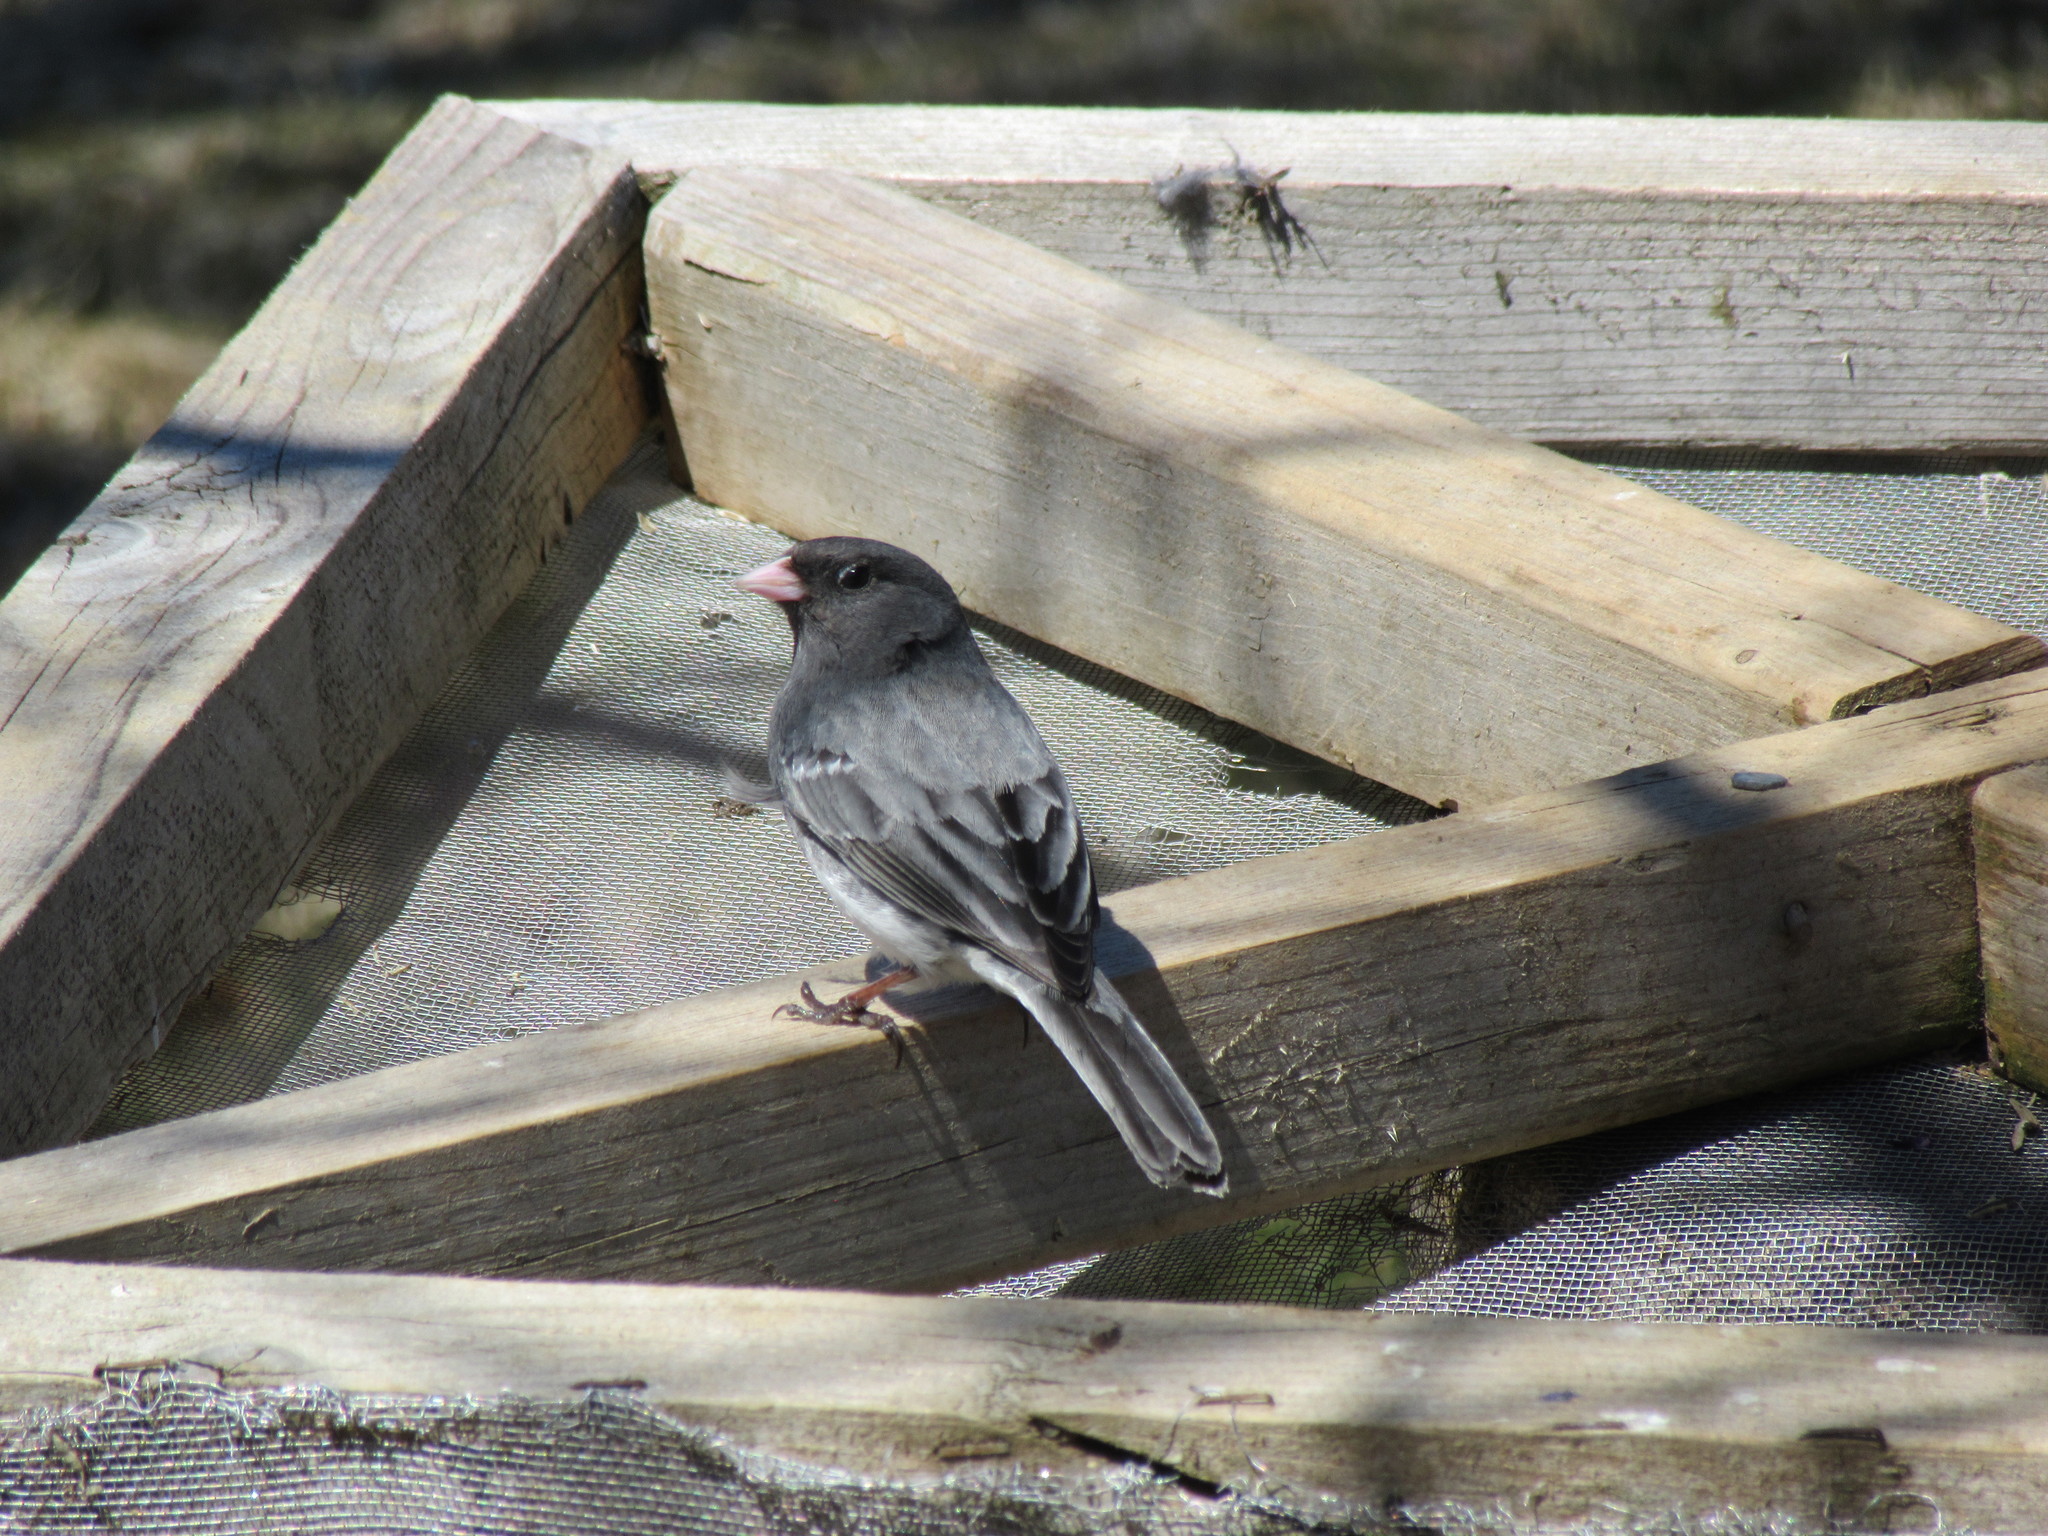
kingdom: Animalia
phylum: Chordata
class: Aves
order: Passeriformes
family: Passerellidae
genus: Junco
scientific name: Junco hyemalis
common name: Dark-eyed junco
